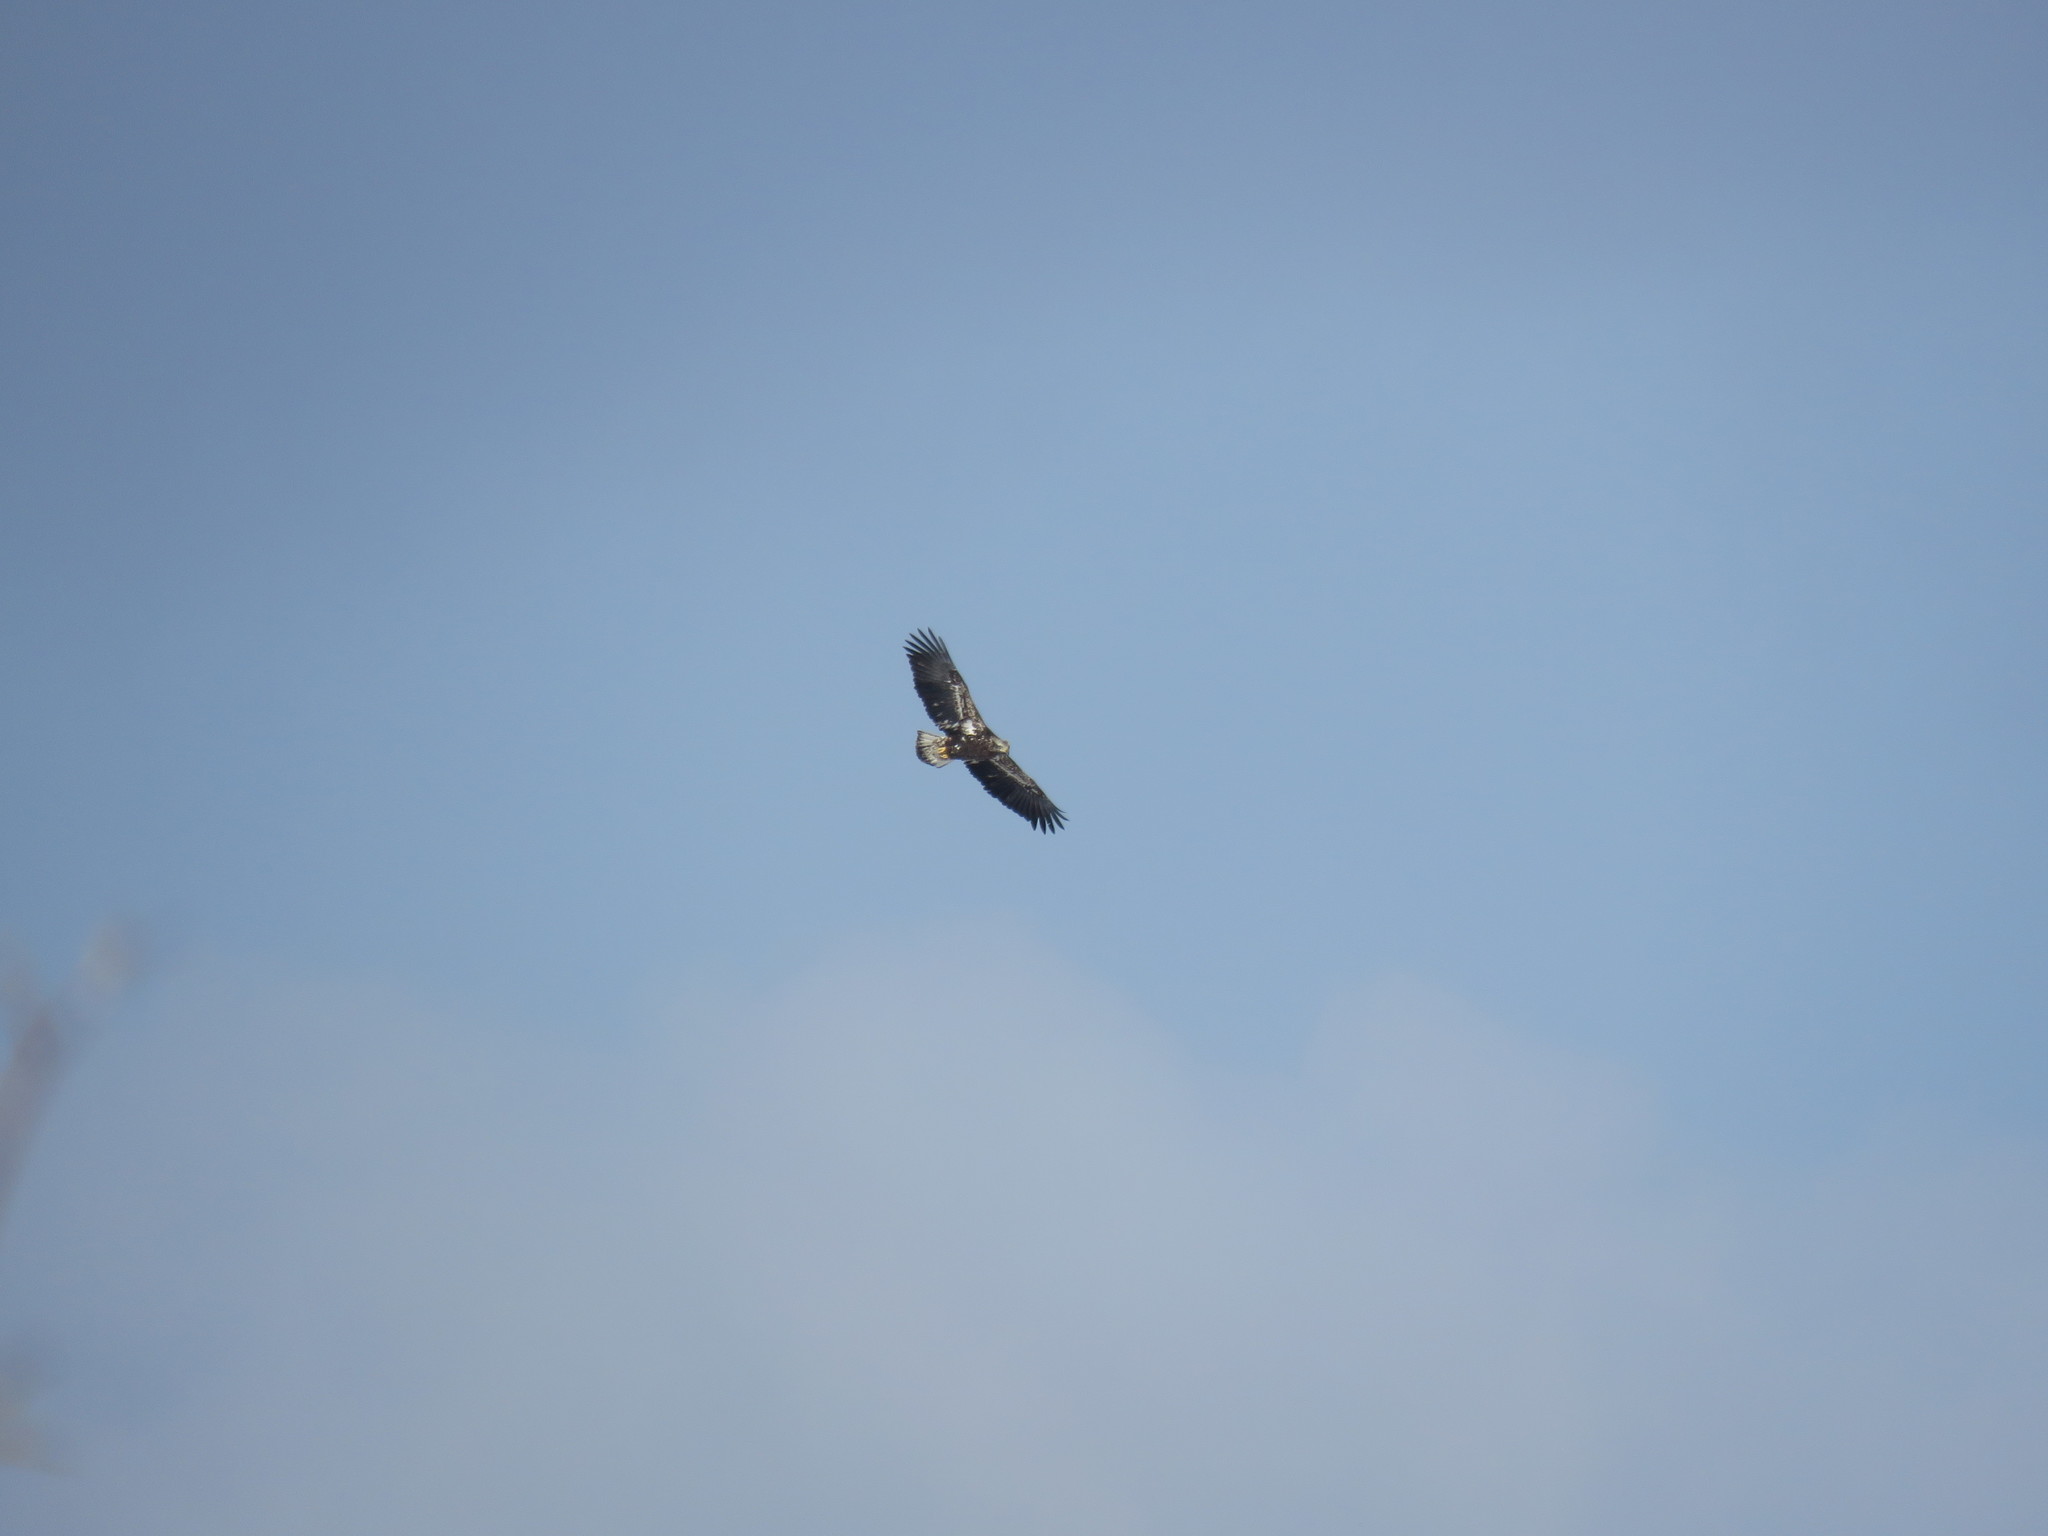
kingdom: Animalia
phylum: Chordata
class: Aves
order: Accipitriformes
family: Accipitridae
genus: Haliaeetus
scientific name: Haliaeetus leucocephalus
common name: Bald eagle
